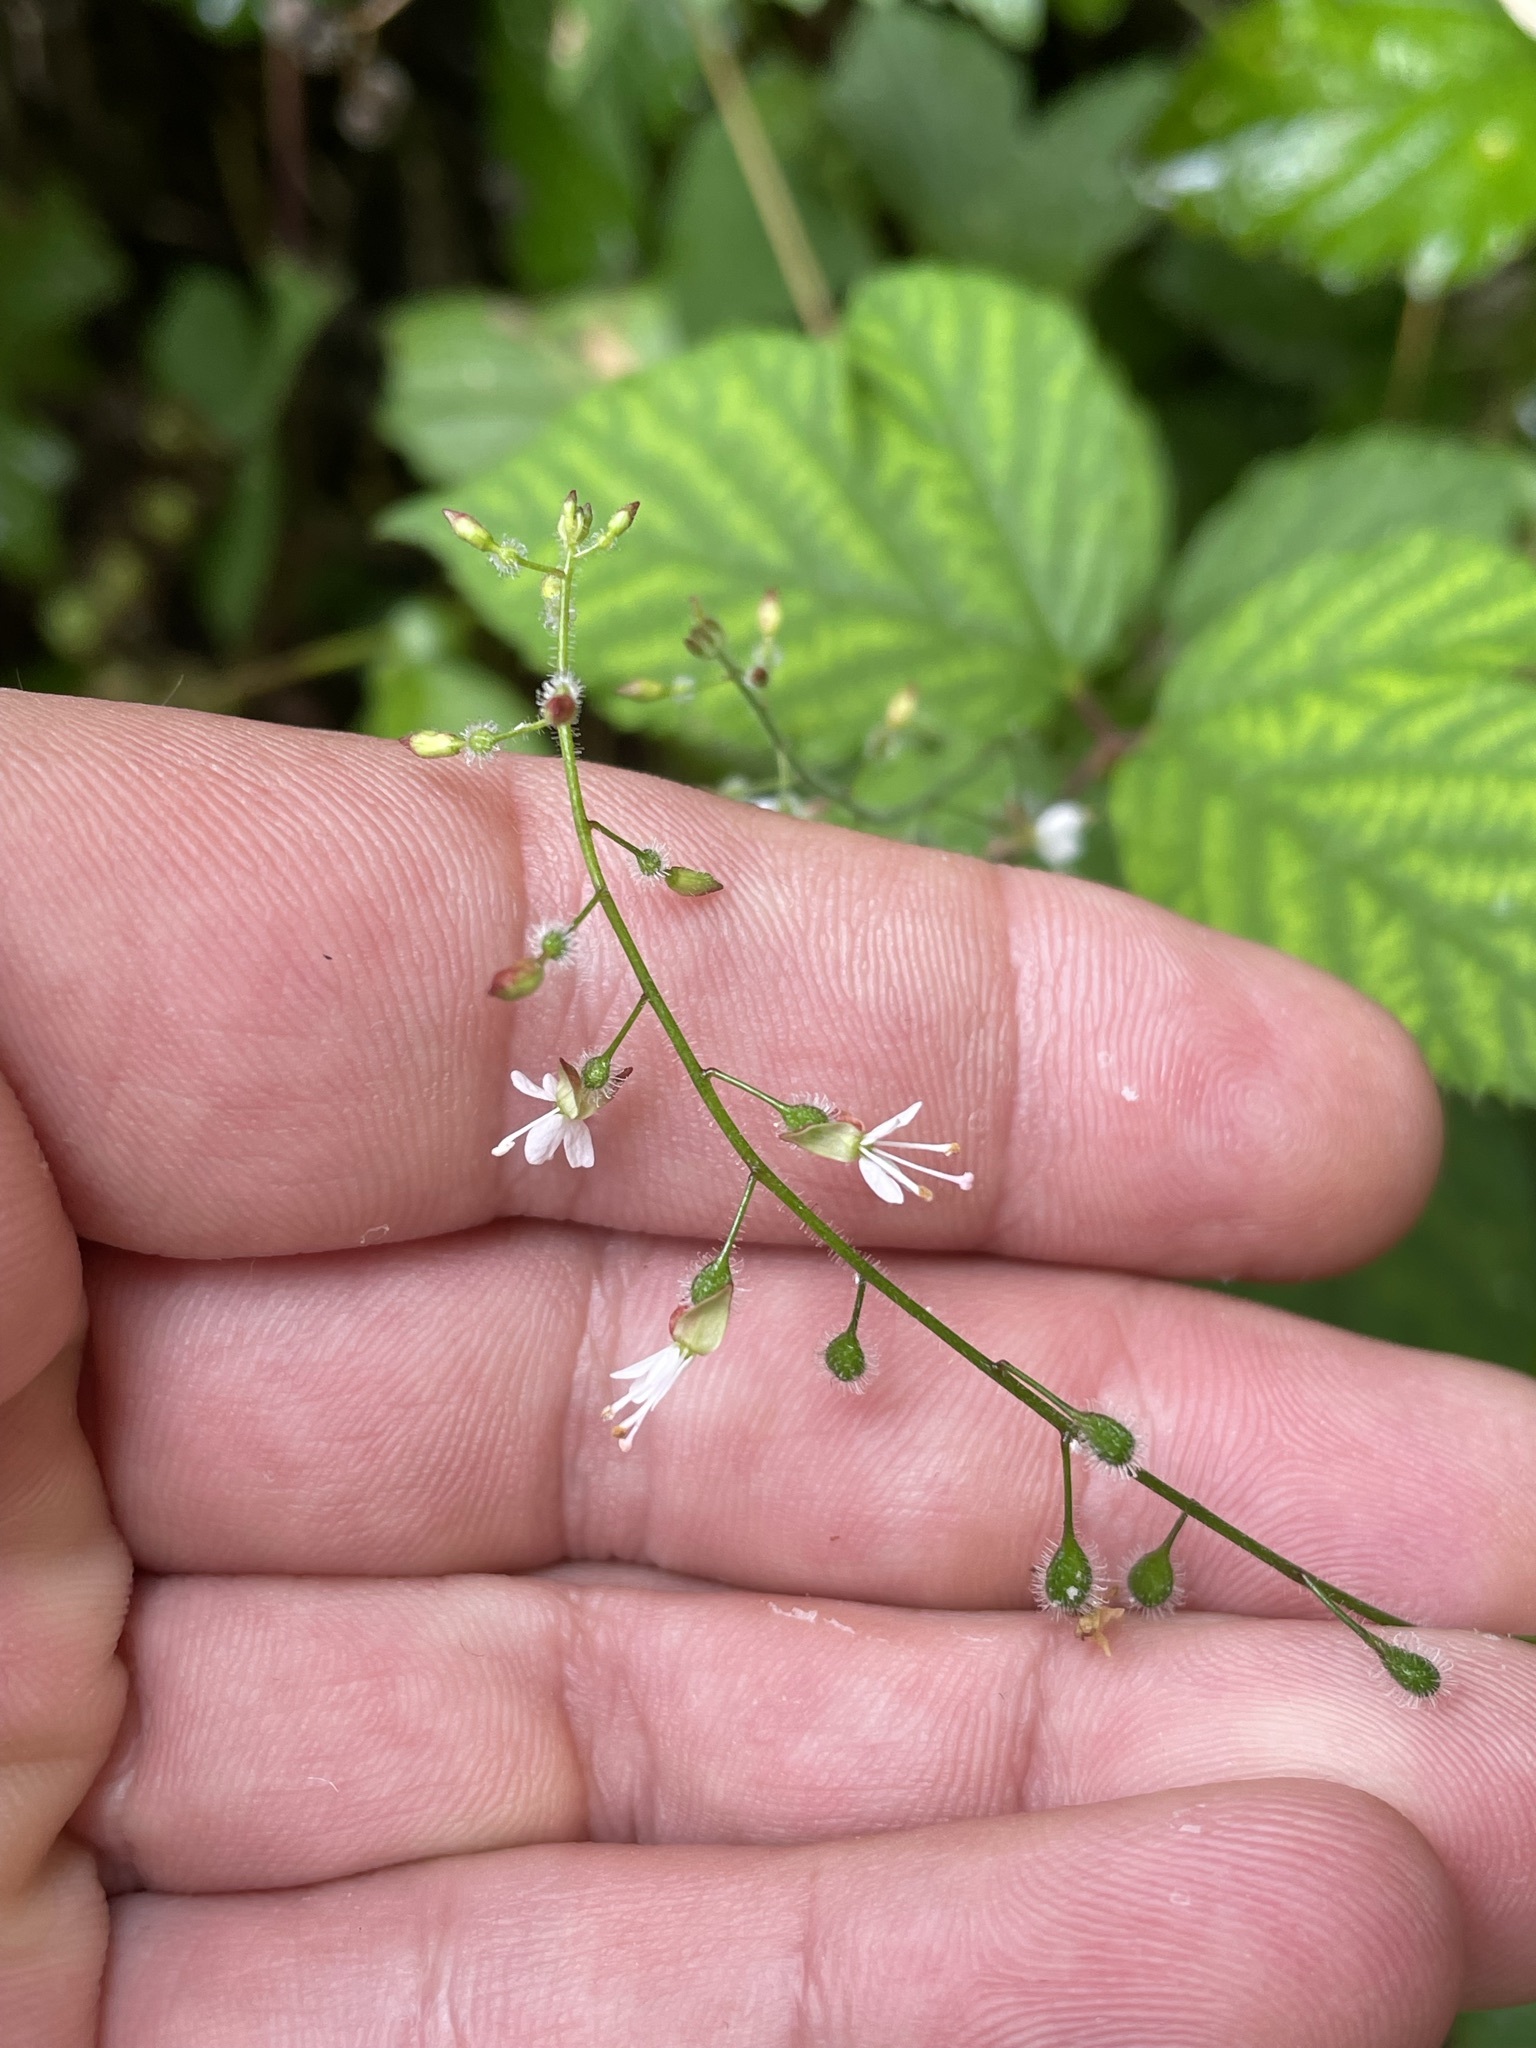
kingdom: Plantae
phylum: Tracheophyta
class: Magnoliopsida
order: Myrtales
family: Onagraceae
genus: Circaea
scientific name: Circaea lutetiana
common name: Enchanter's-nightshade
